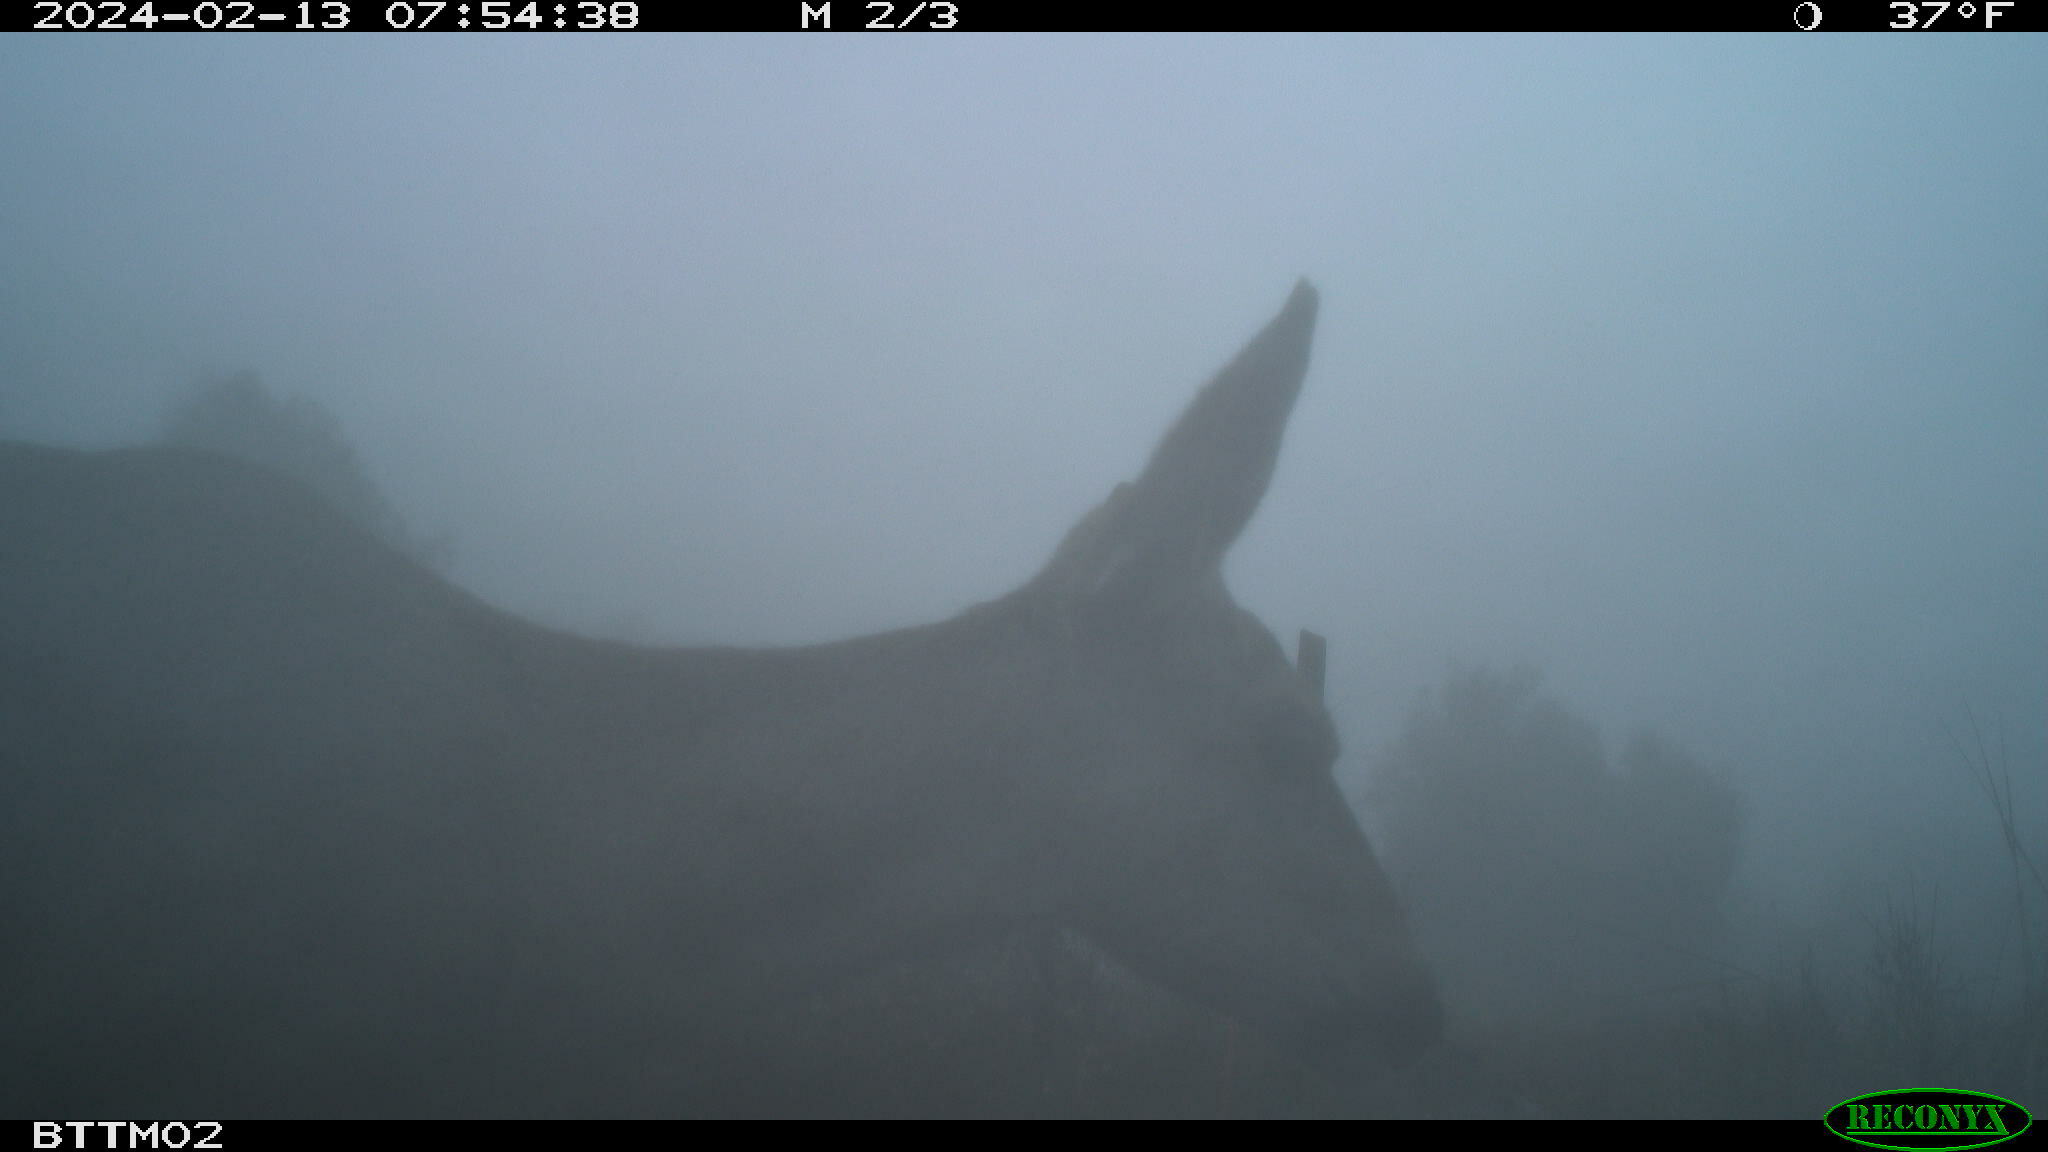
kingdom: Animalia
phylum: Chordata
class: Mammalia
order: Artiodactyla
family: Cervidae
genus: Odocoileus
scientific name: Odocoileus hemionus
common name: Mule deer
